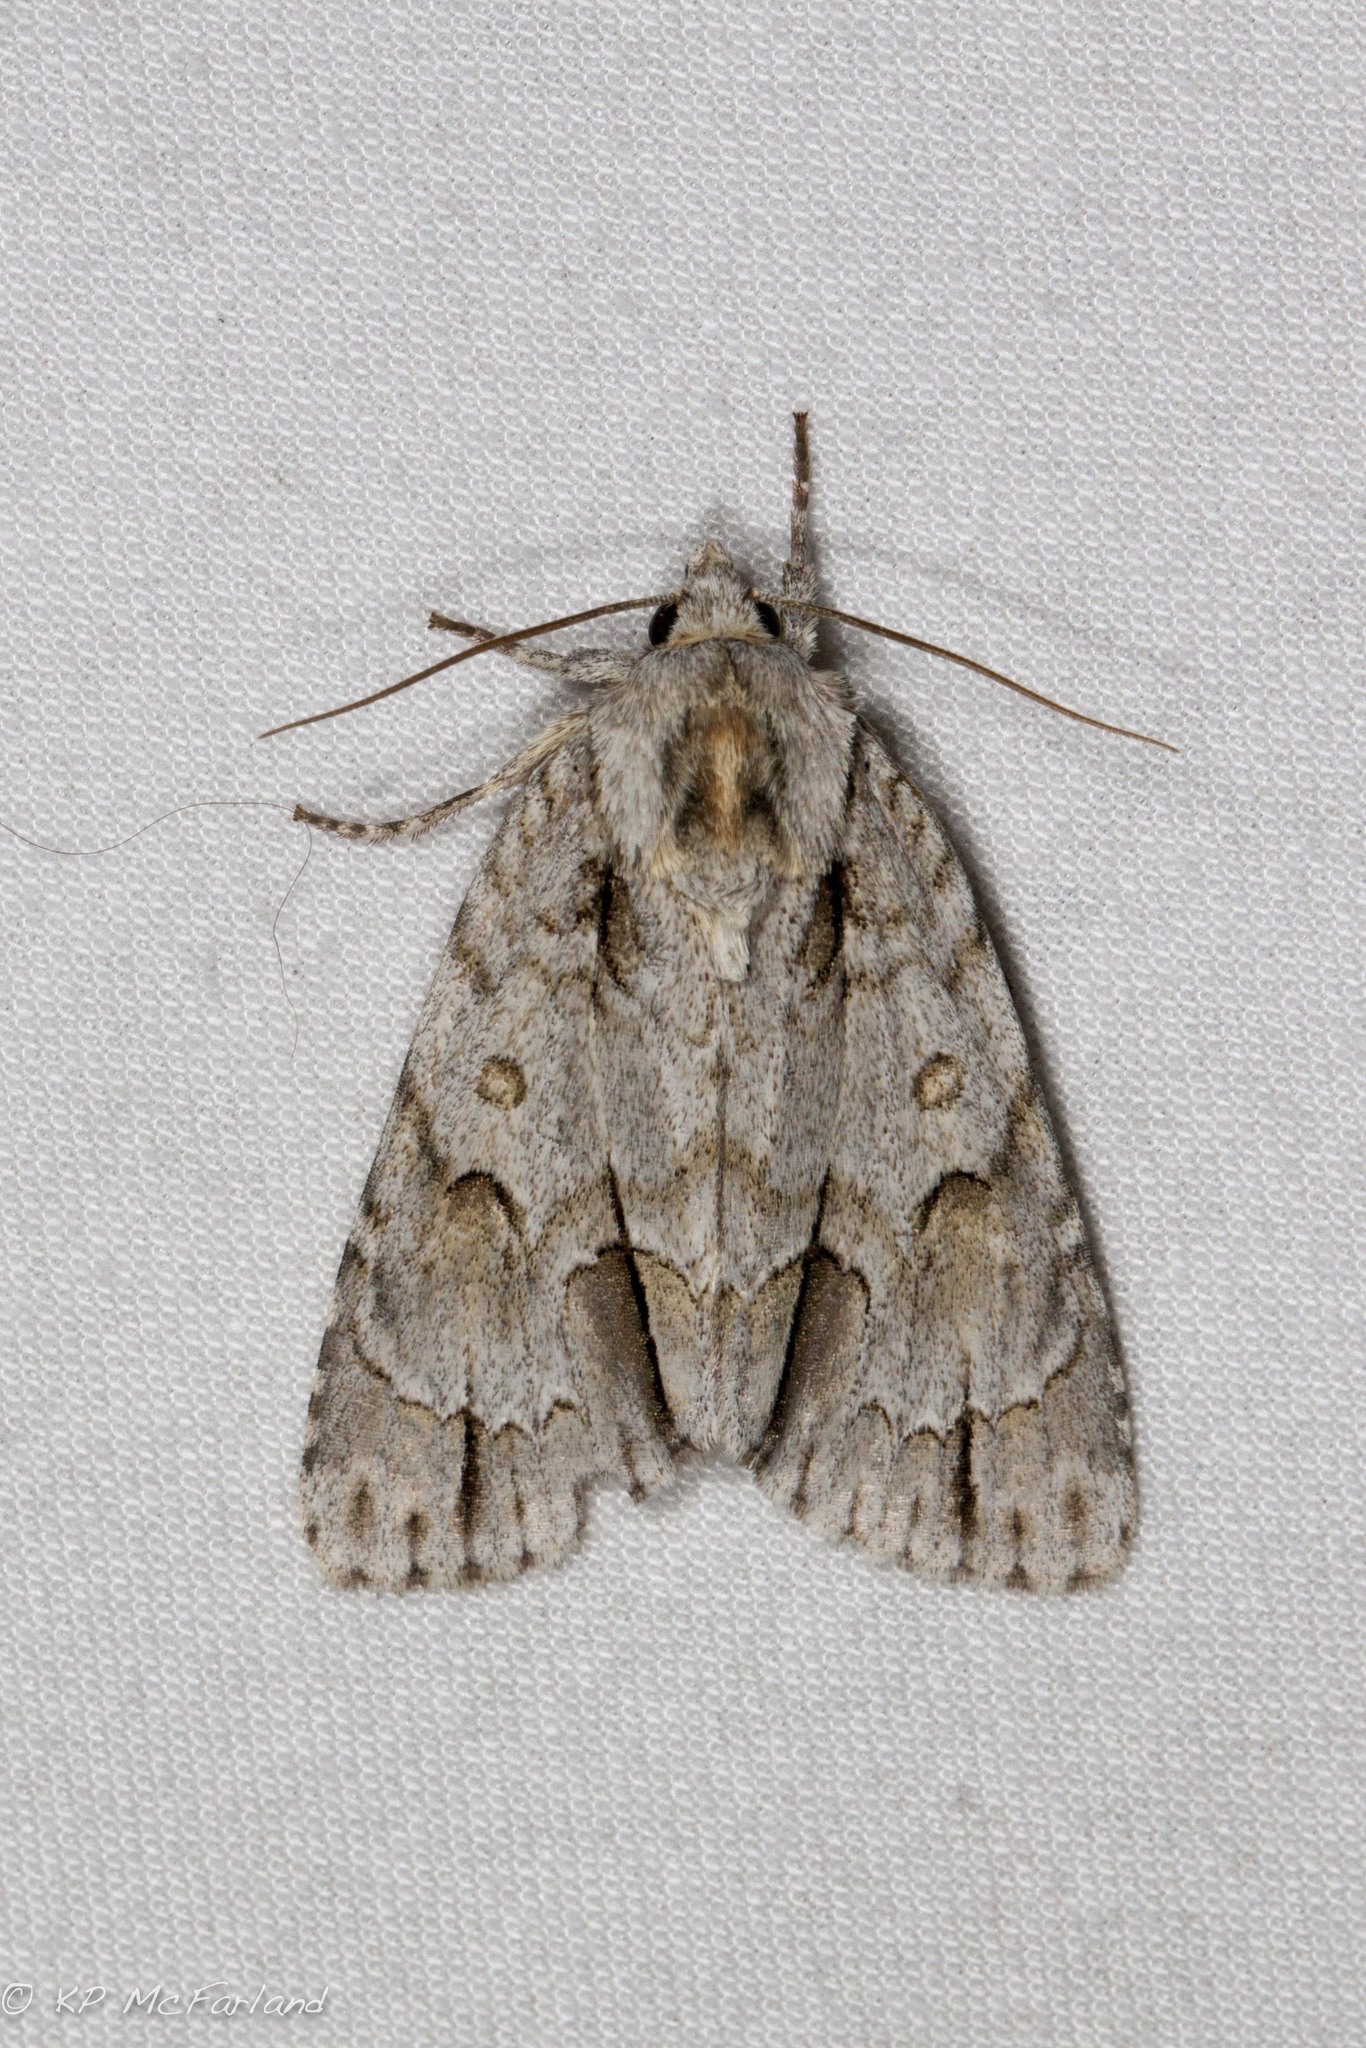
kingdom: Animalia
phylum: Arthropoda
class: Insecta
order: Lepidoptera
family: Noctuidae
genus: Acronicta
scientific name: Acronicta morula
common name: Ochre dagger
